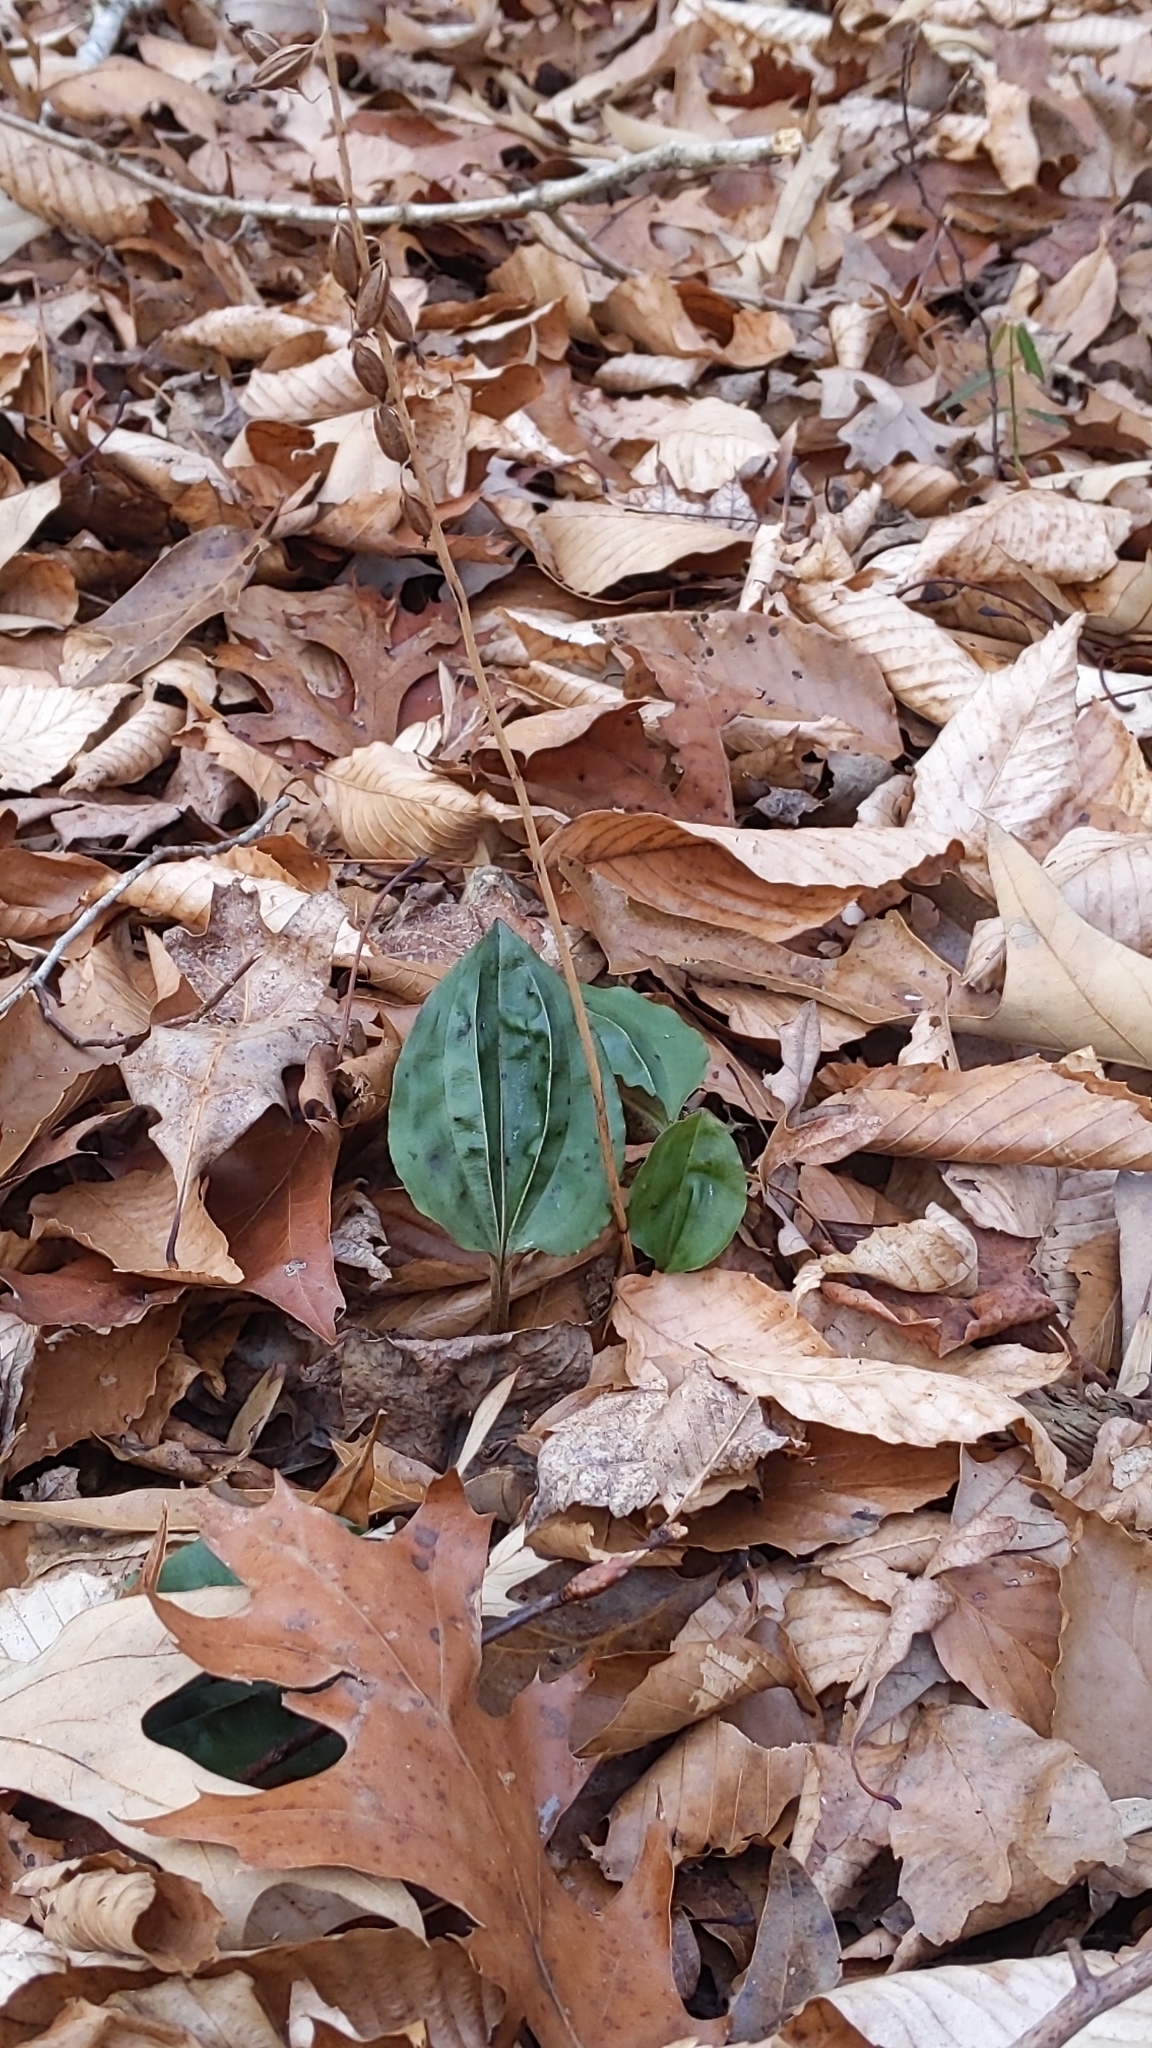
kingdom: Plantae
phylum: Tracheophyta
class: Liliopsida
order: Asparagales
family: Orchidaceae
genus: Tipularia
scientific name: Tipularia discolor
